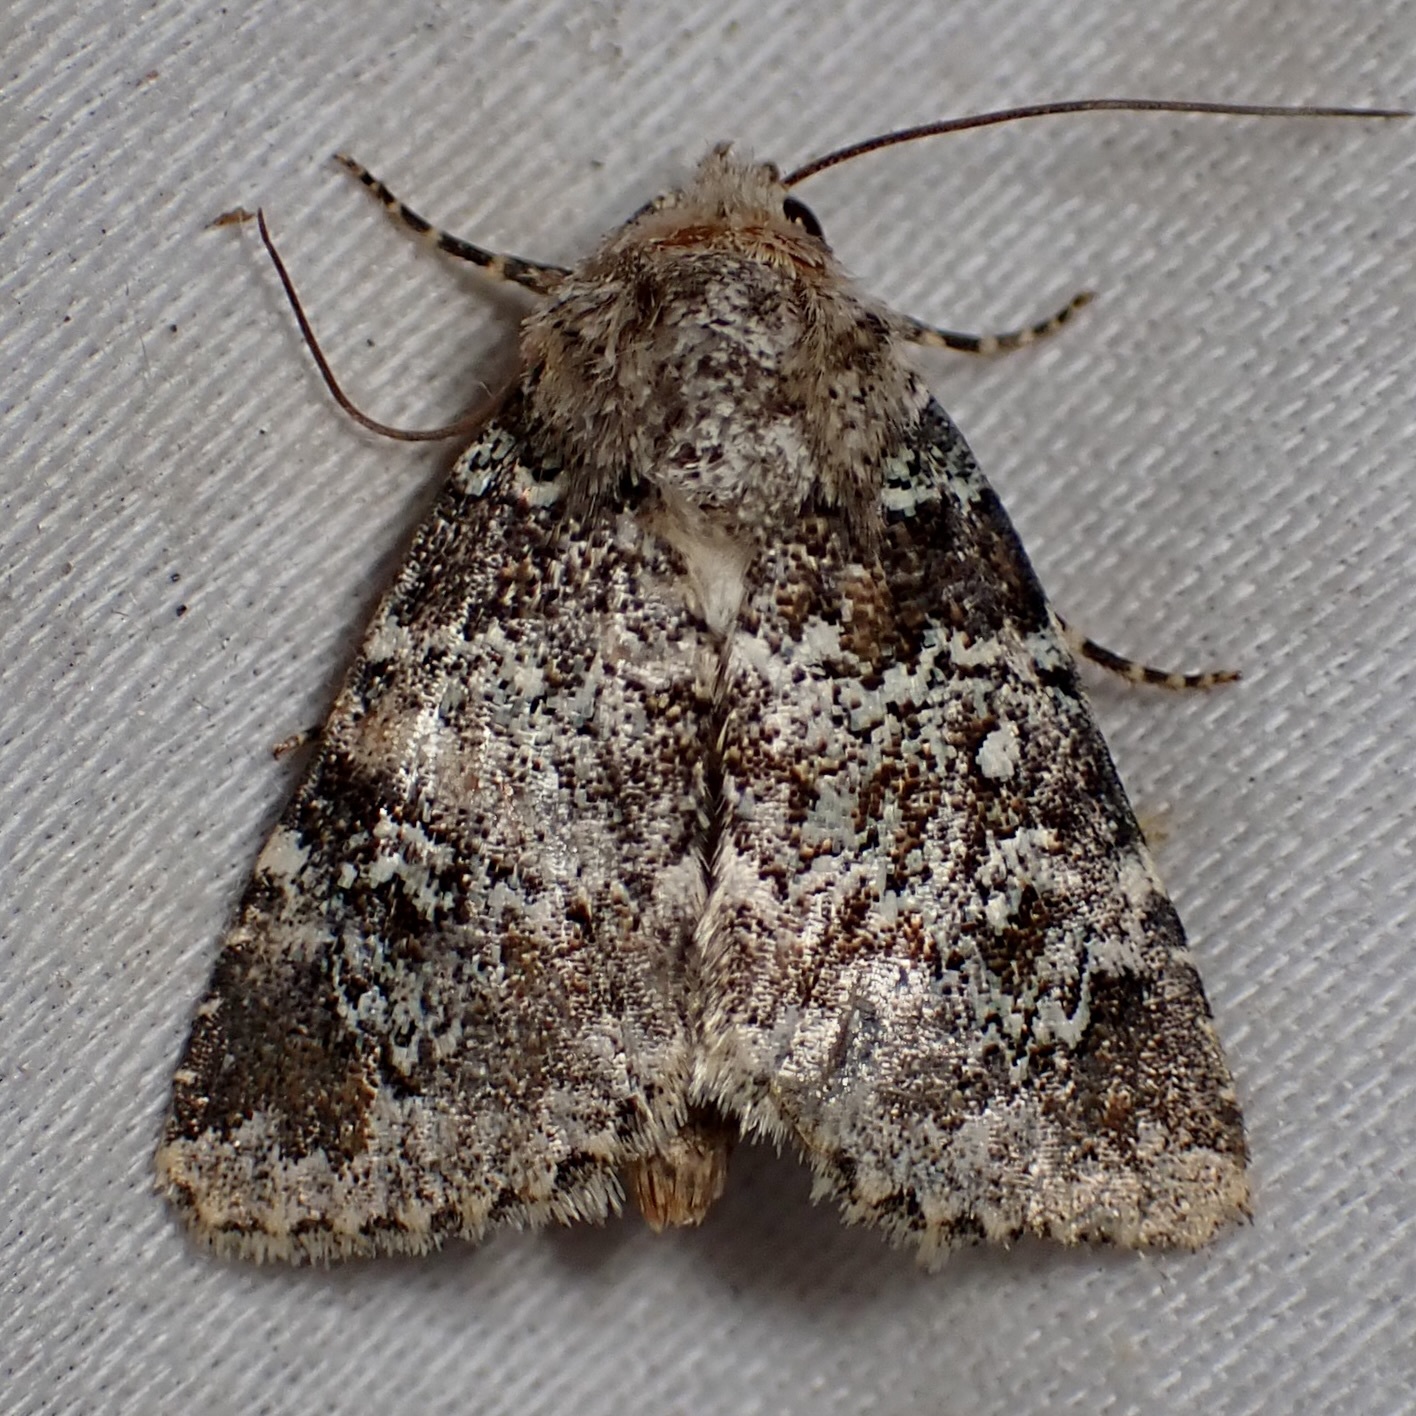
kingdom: Animalia
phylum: Arthropoda
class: Insecta
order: Lepidoptera
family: Noctuidae
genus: Hemibryomima
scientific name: Hemibryomima chryselectra
